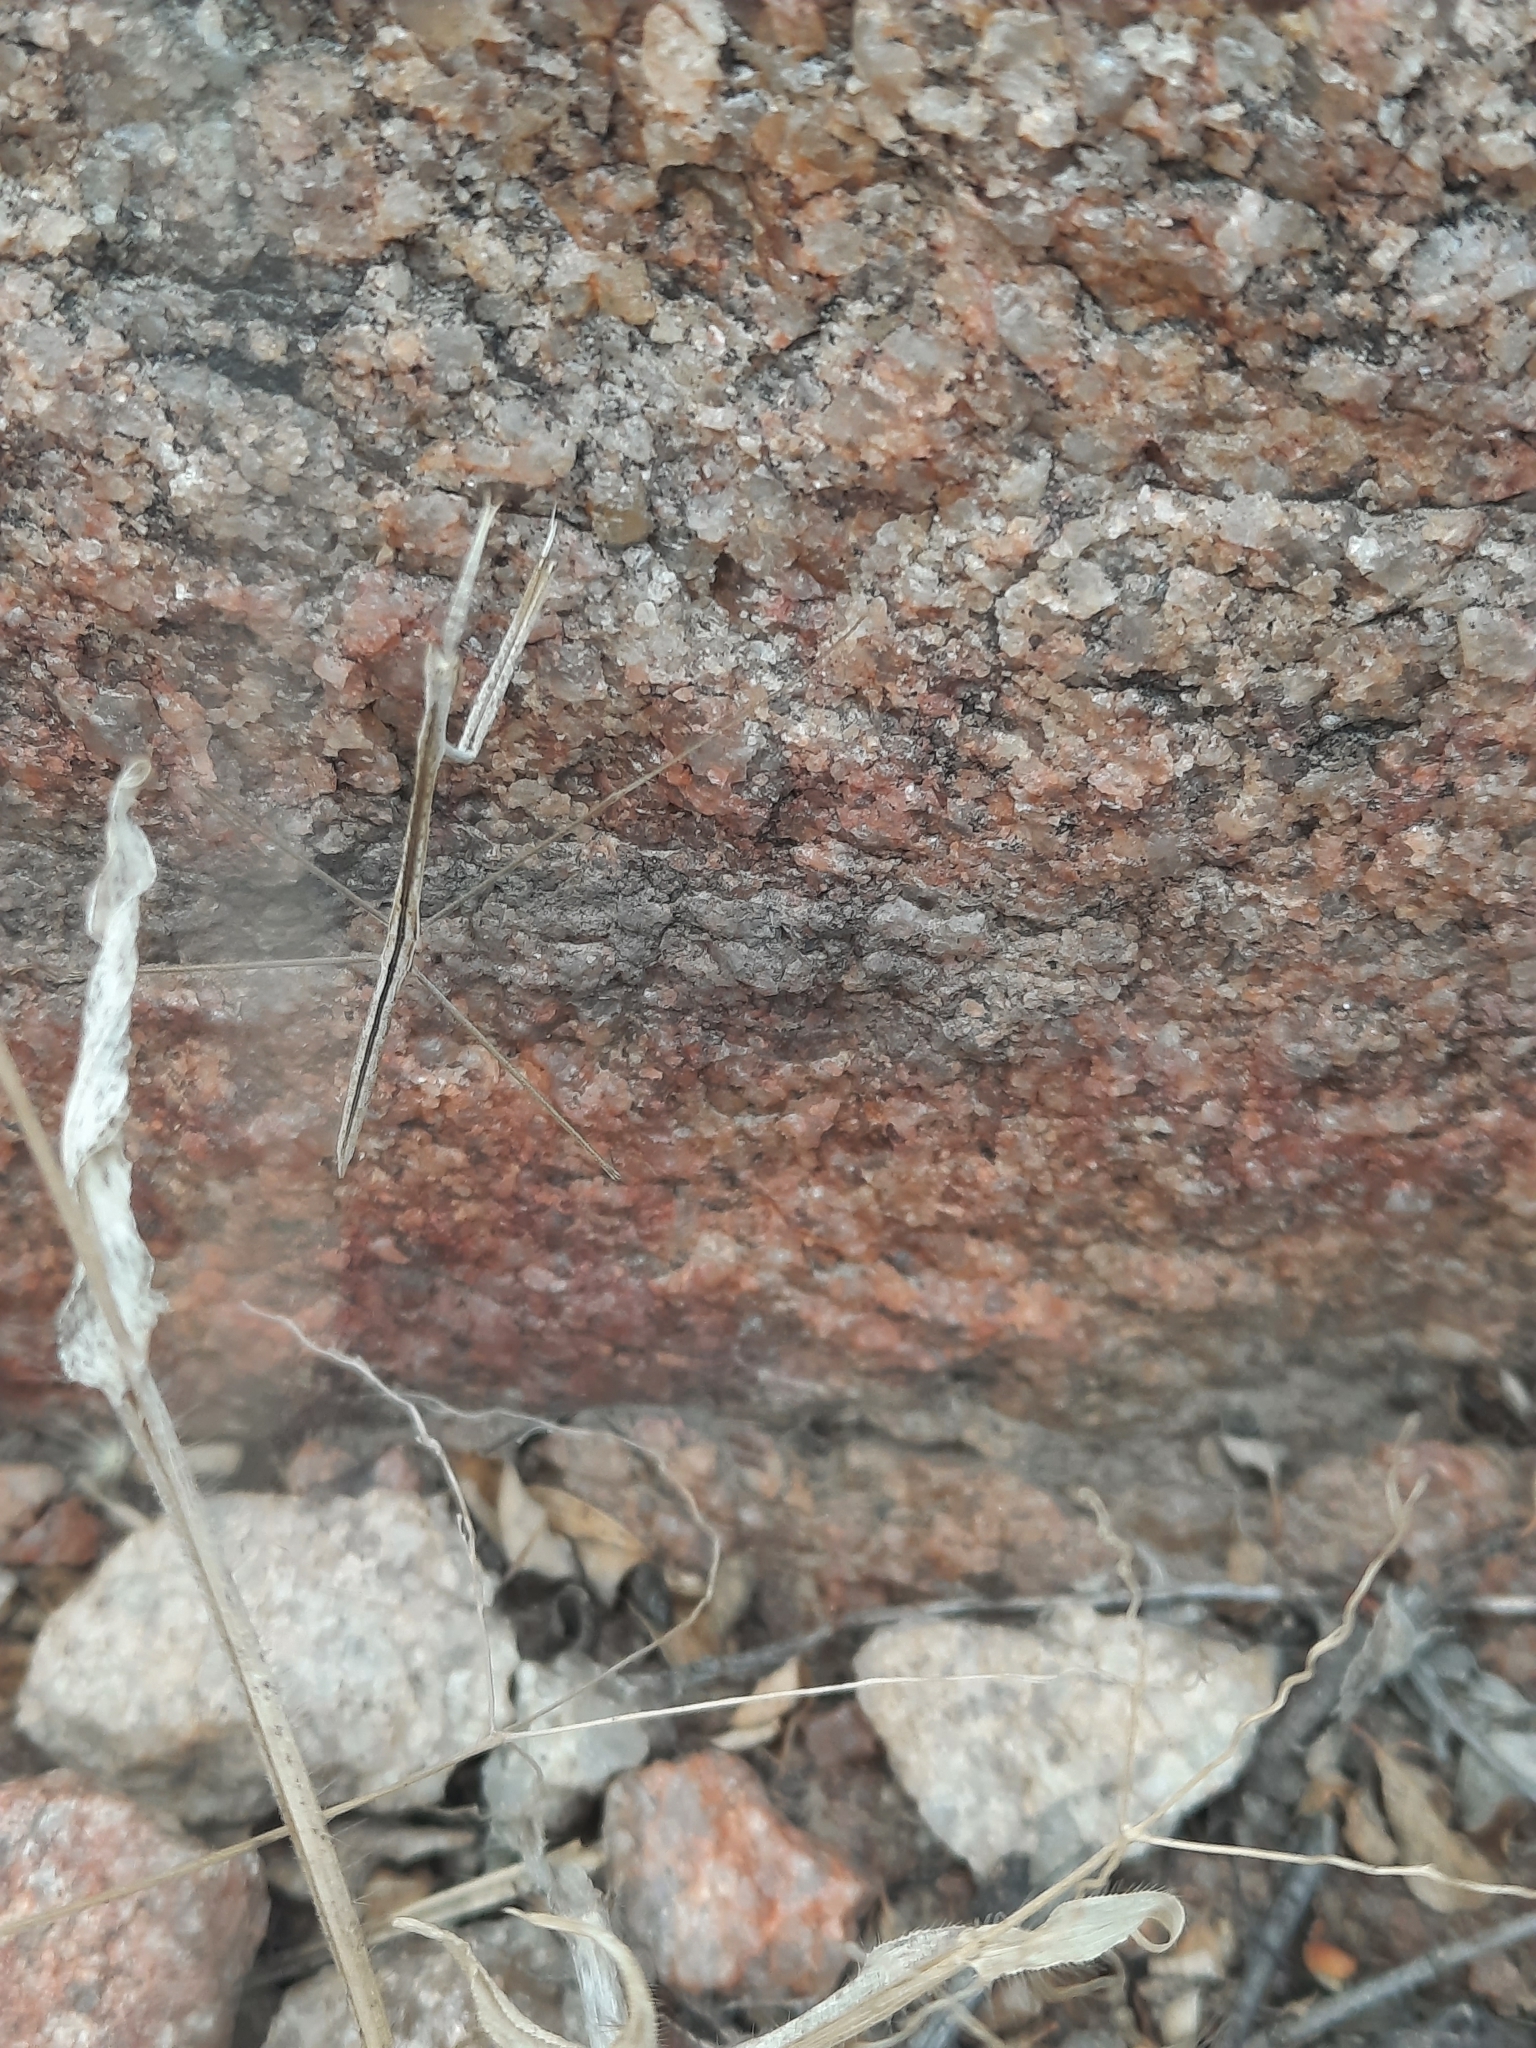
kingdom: Animalia
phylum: Arthropoda
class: Insecta
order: Mantodea
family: Eremiaphilidae
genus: Schizocephala
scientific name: Schizocephala bicornis
